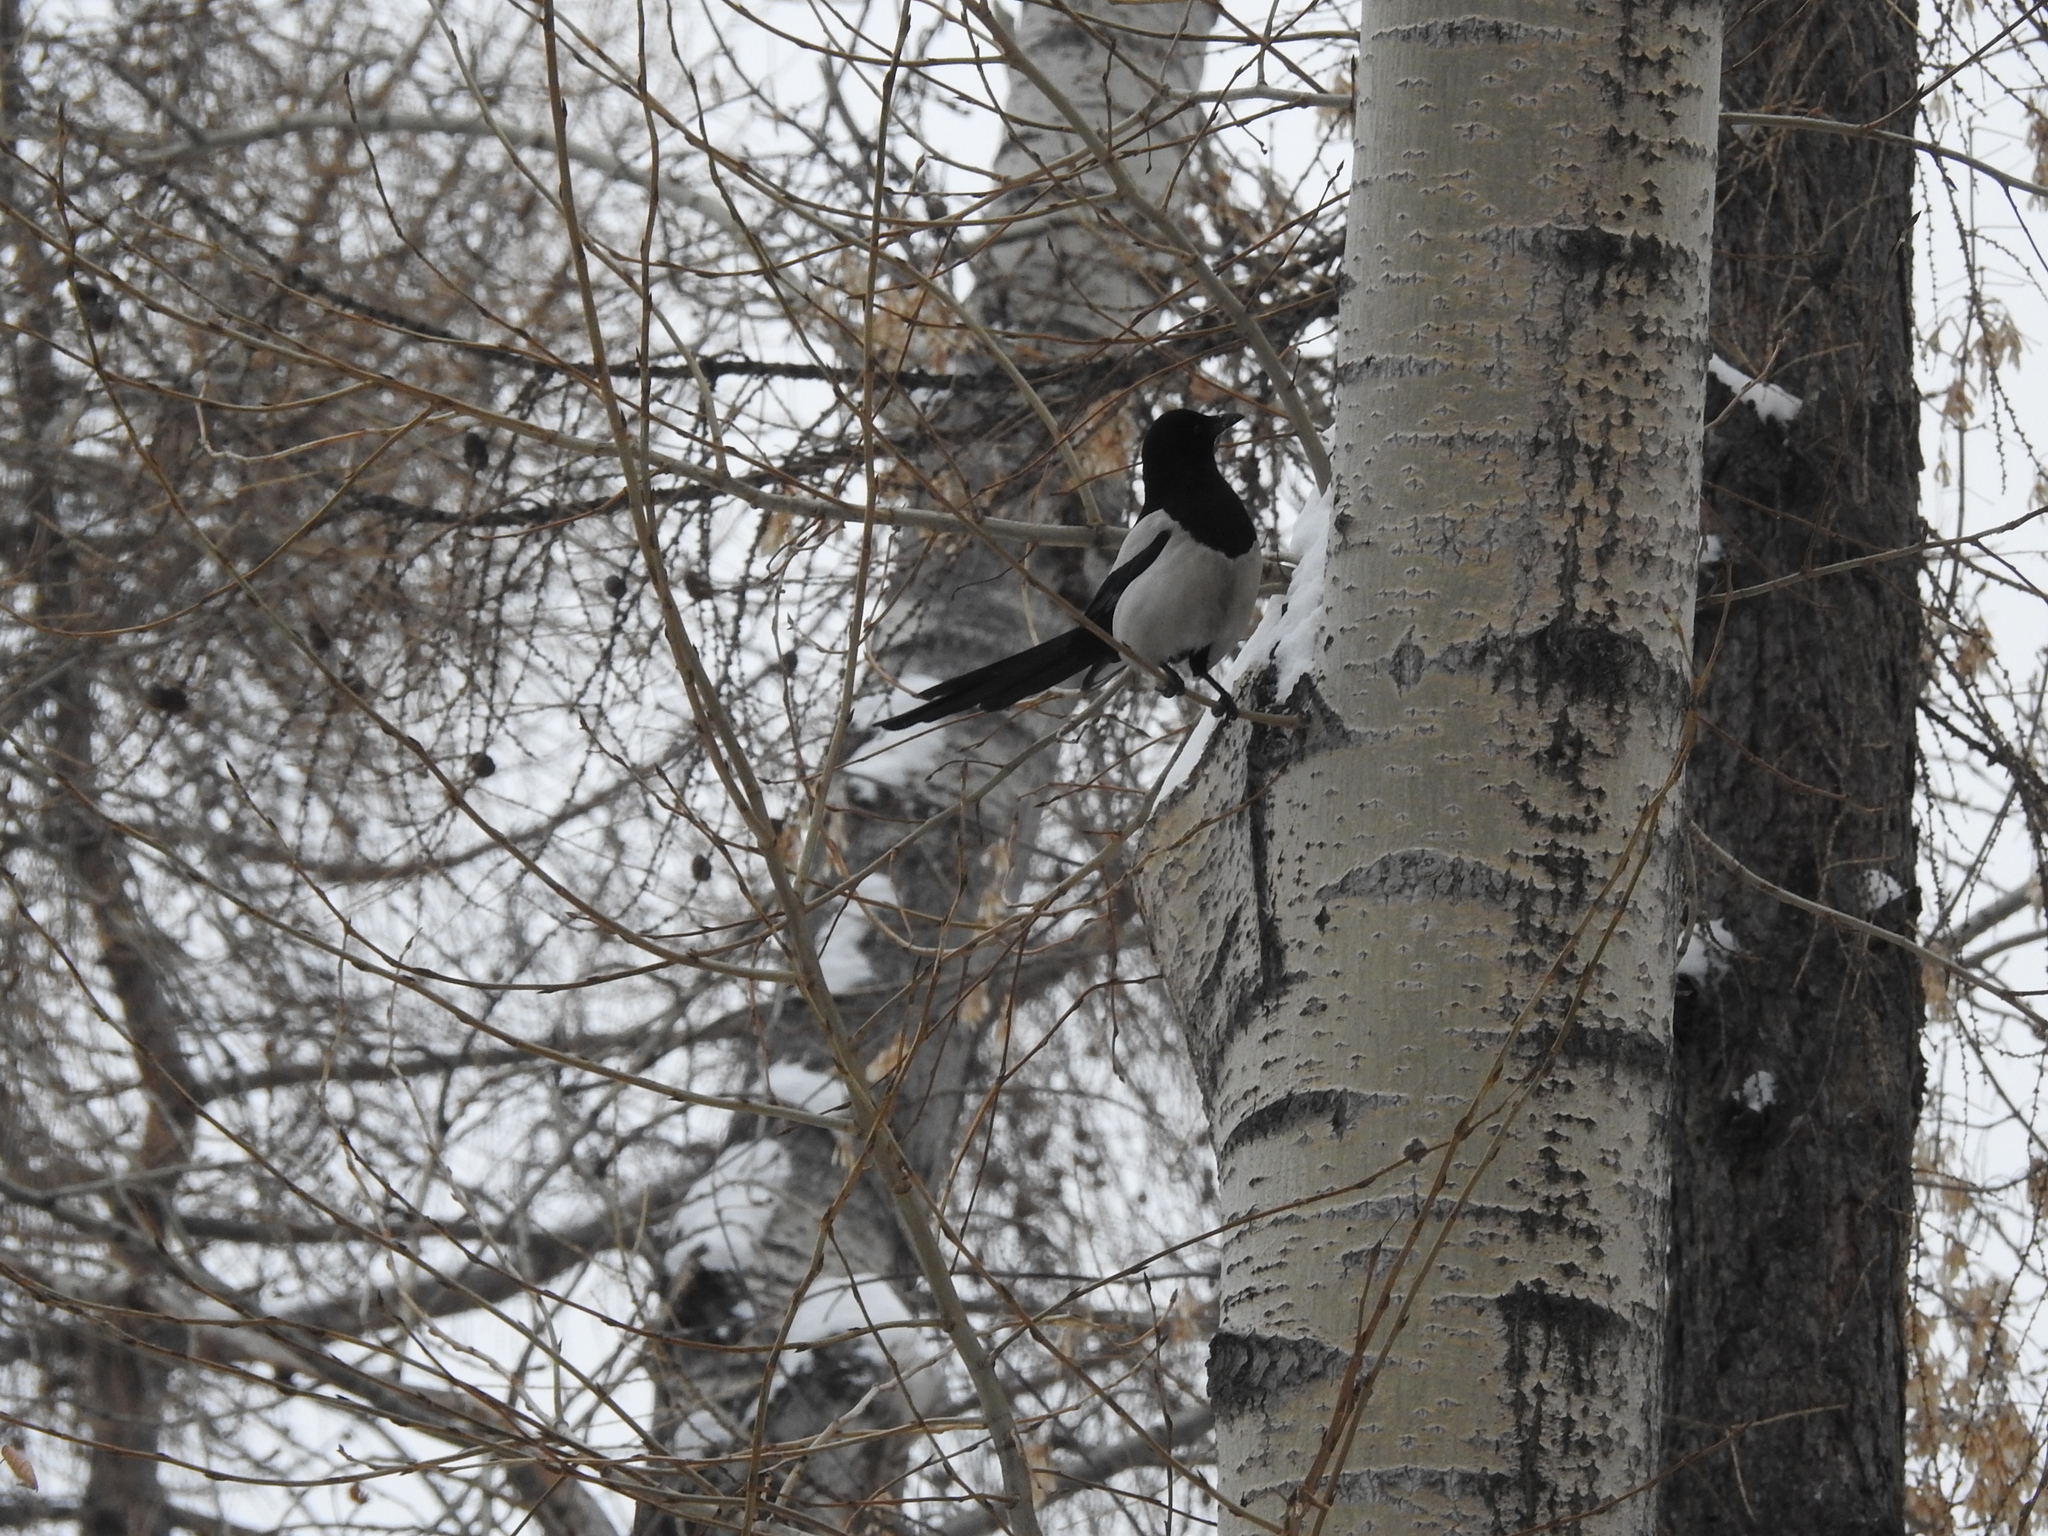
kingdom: Animalia
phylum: Chordata
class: Aves
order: Passeriformes
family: Corvidae
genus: Pica
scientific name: Pica pica
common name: Eurasian magpie
